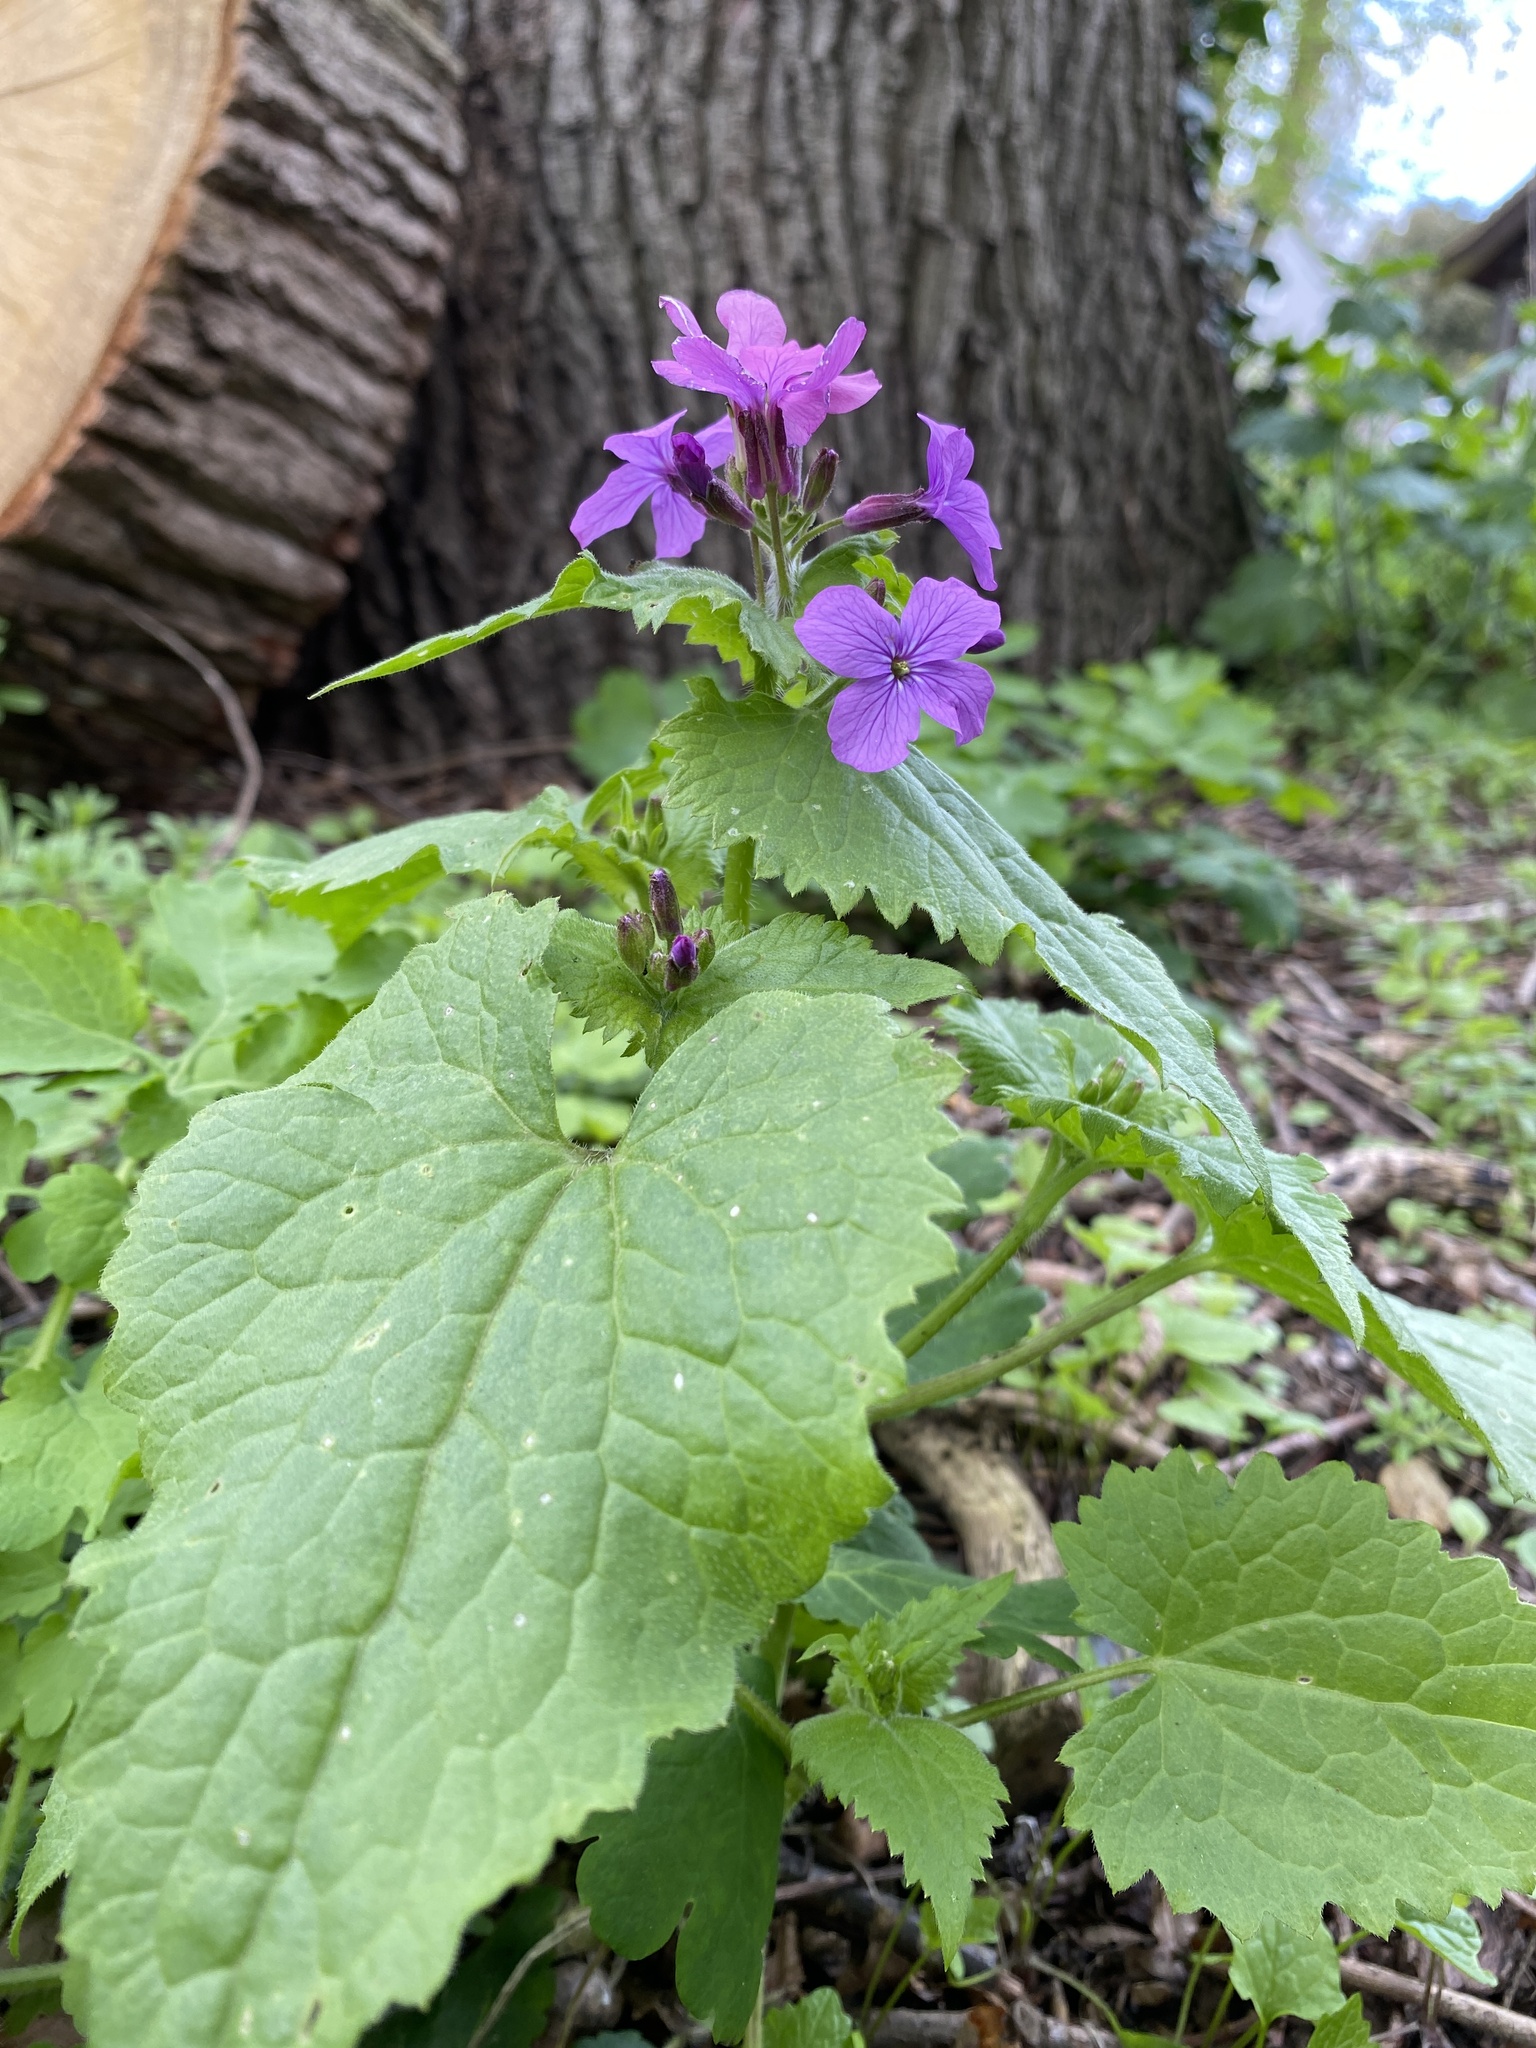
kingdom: Plantae
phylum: Tracheophyta
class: Magnoliopsida
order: Brassicales
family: Brassicaceae
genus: Lunaria
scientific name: Lunaria annua
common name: Honesty
